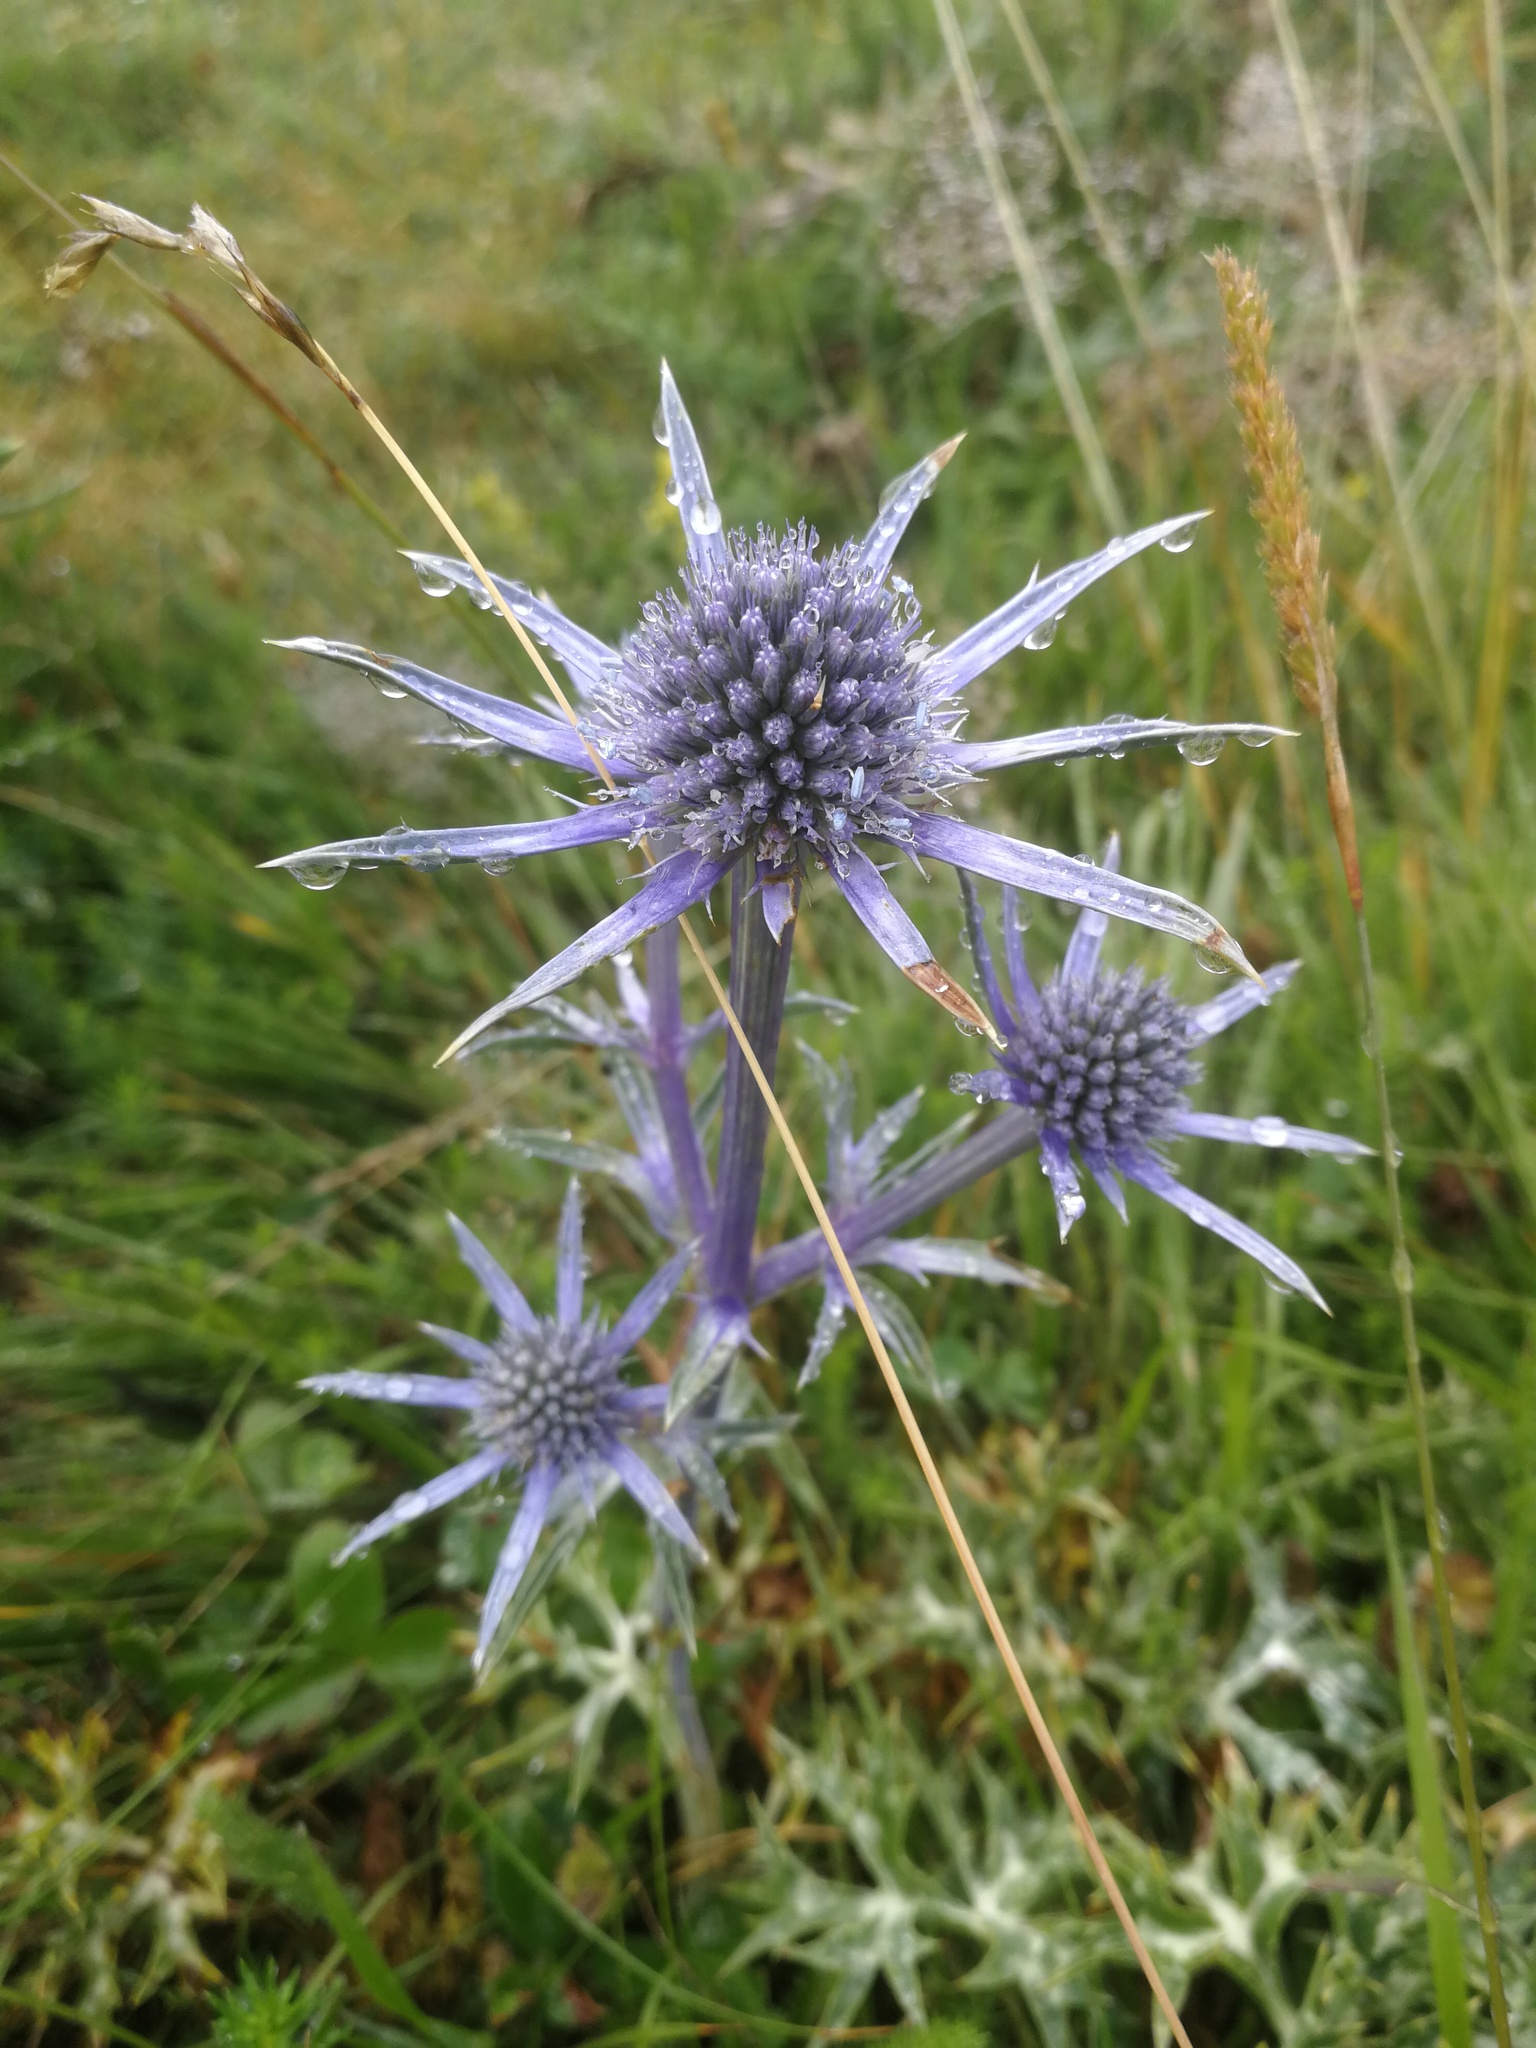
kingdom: Plantae
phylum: Tracheophyta
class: Magnoliopsida
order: Apiales
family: Apiaceae
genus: Eryngium
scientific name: Eryngium bourgatii
